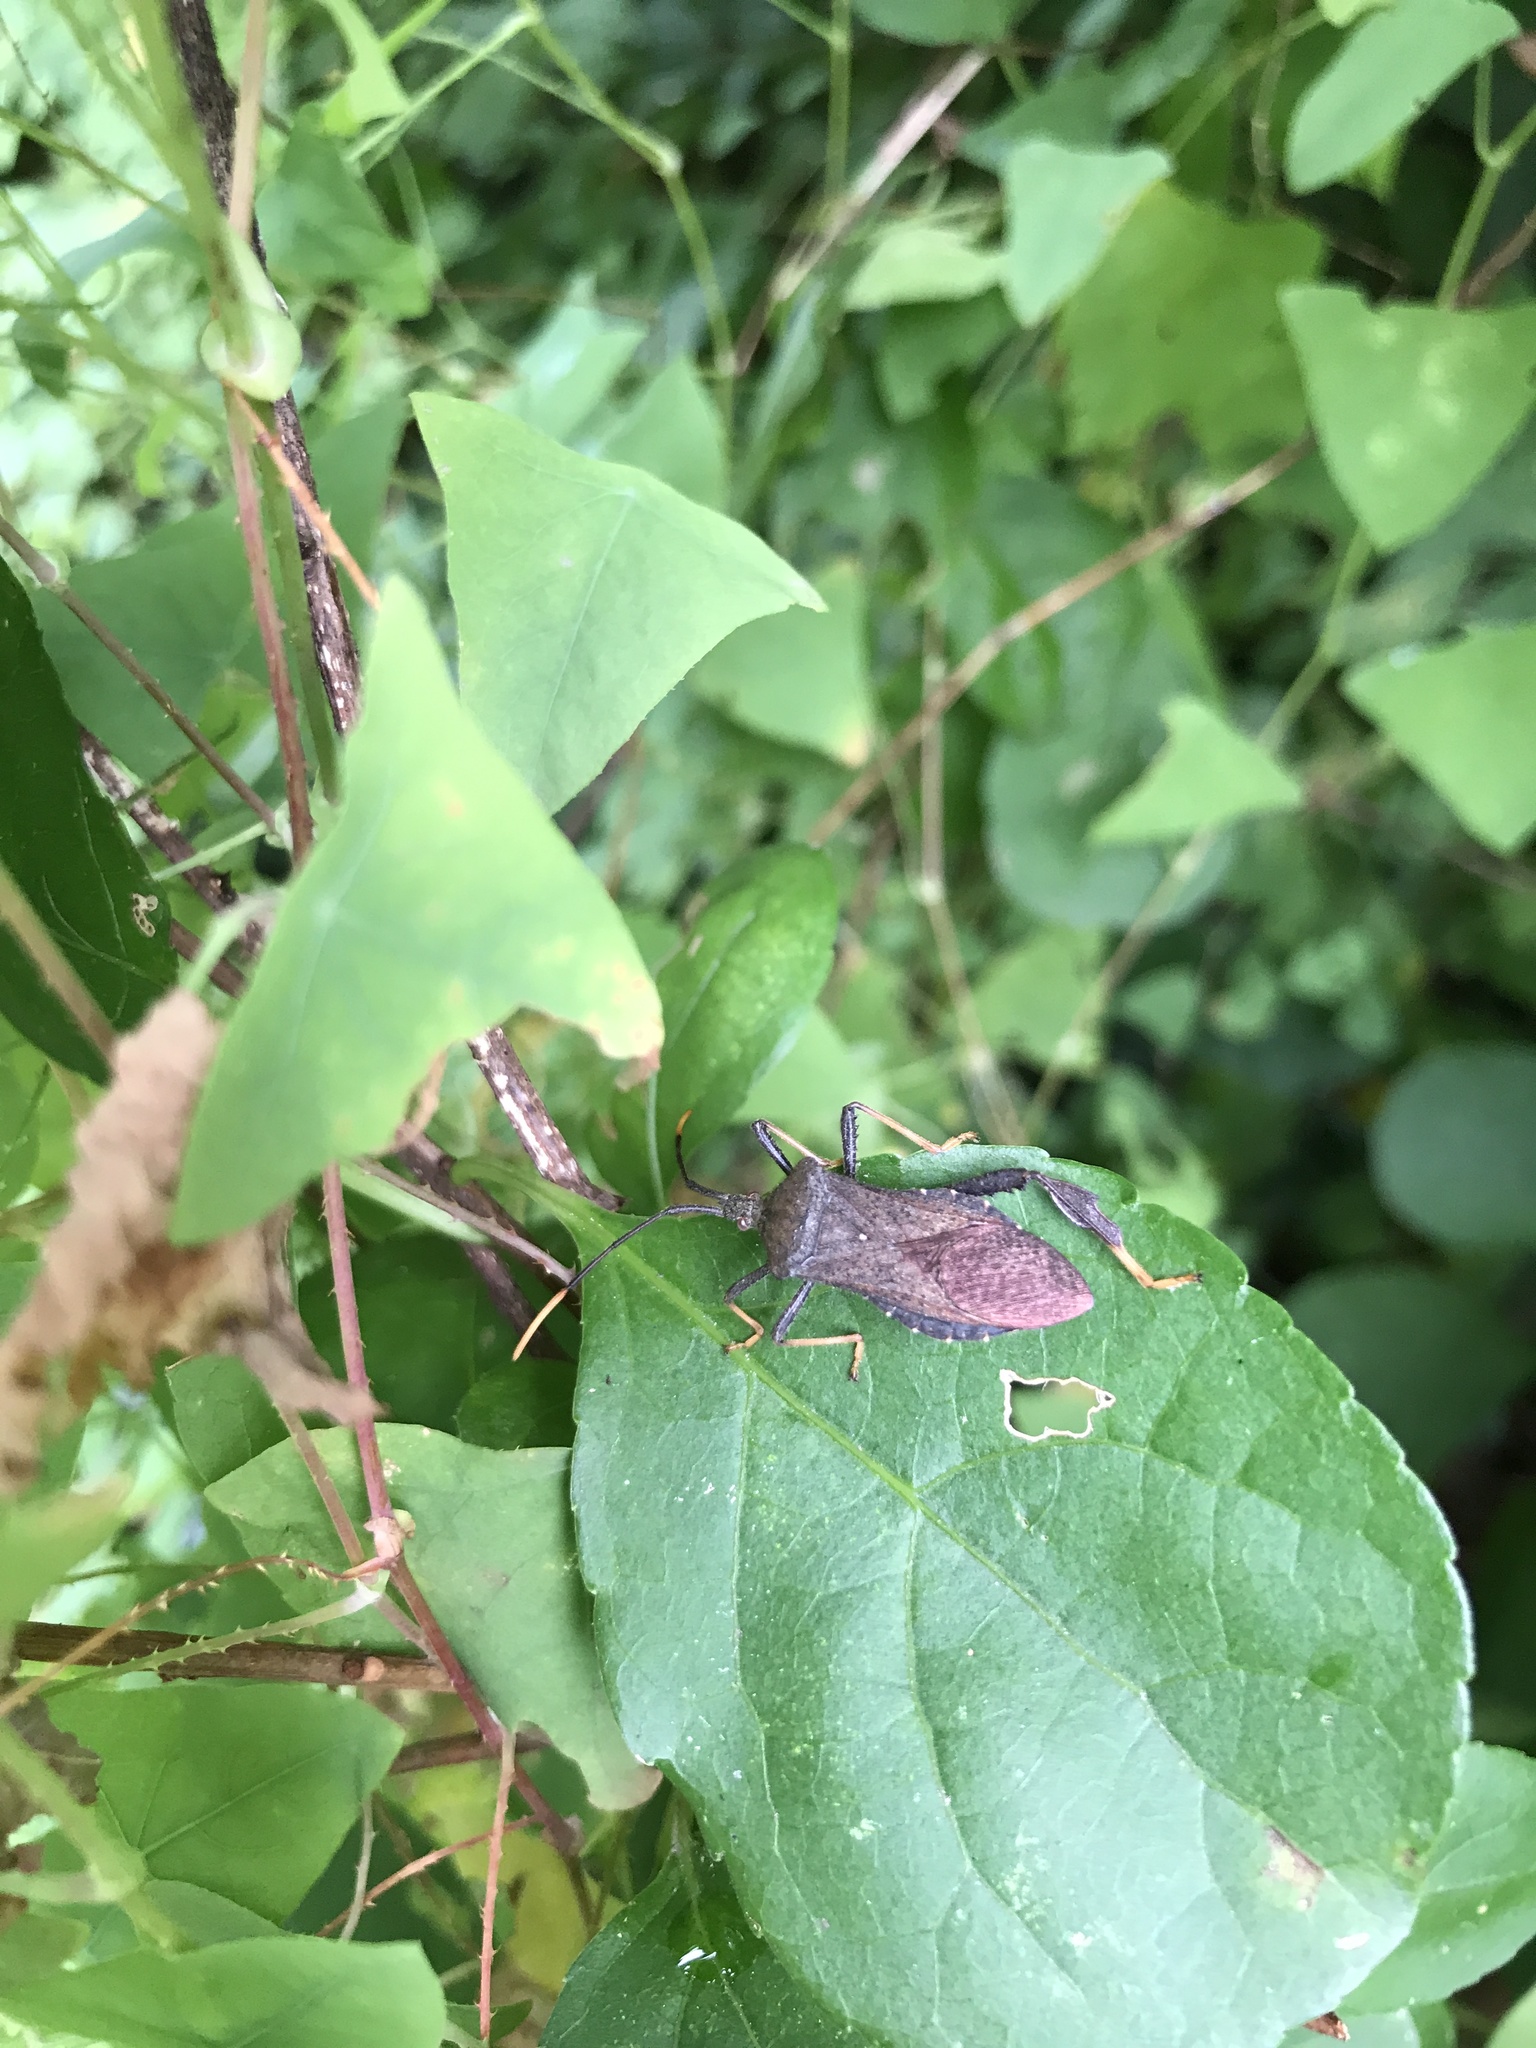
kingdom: Animalia
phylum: Arthropoda
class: Insecta
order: Hemiptera
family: Coreidae
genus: Acanthocephala
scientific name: Acanthocephala terminalis
